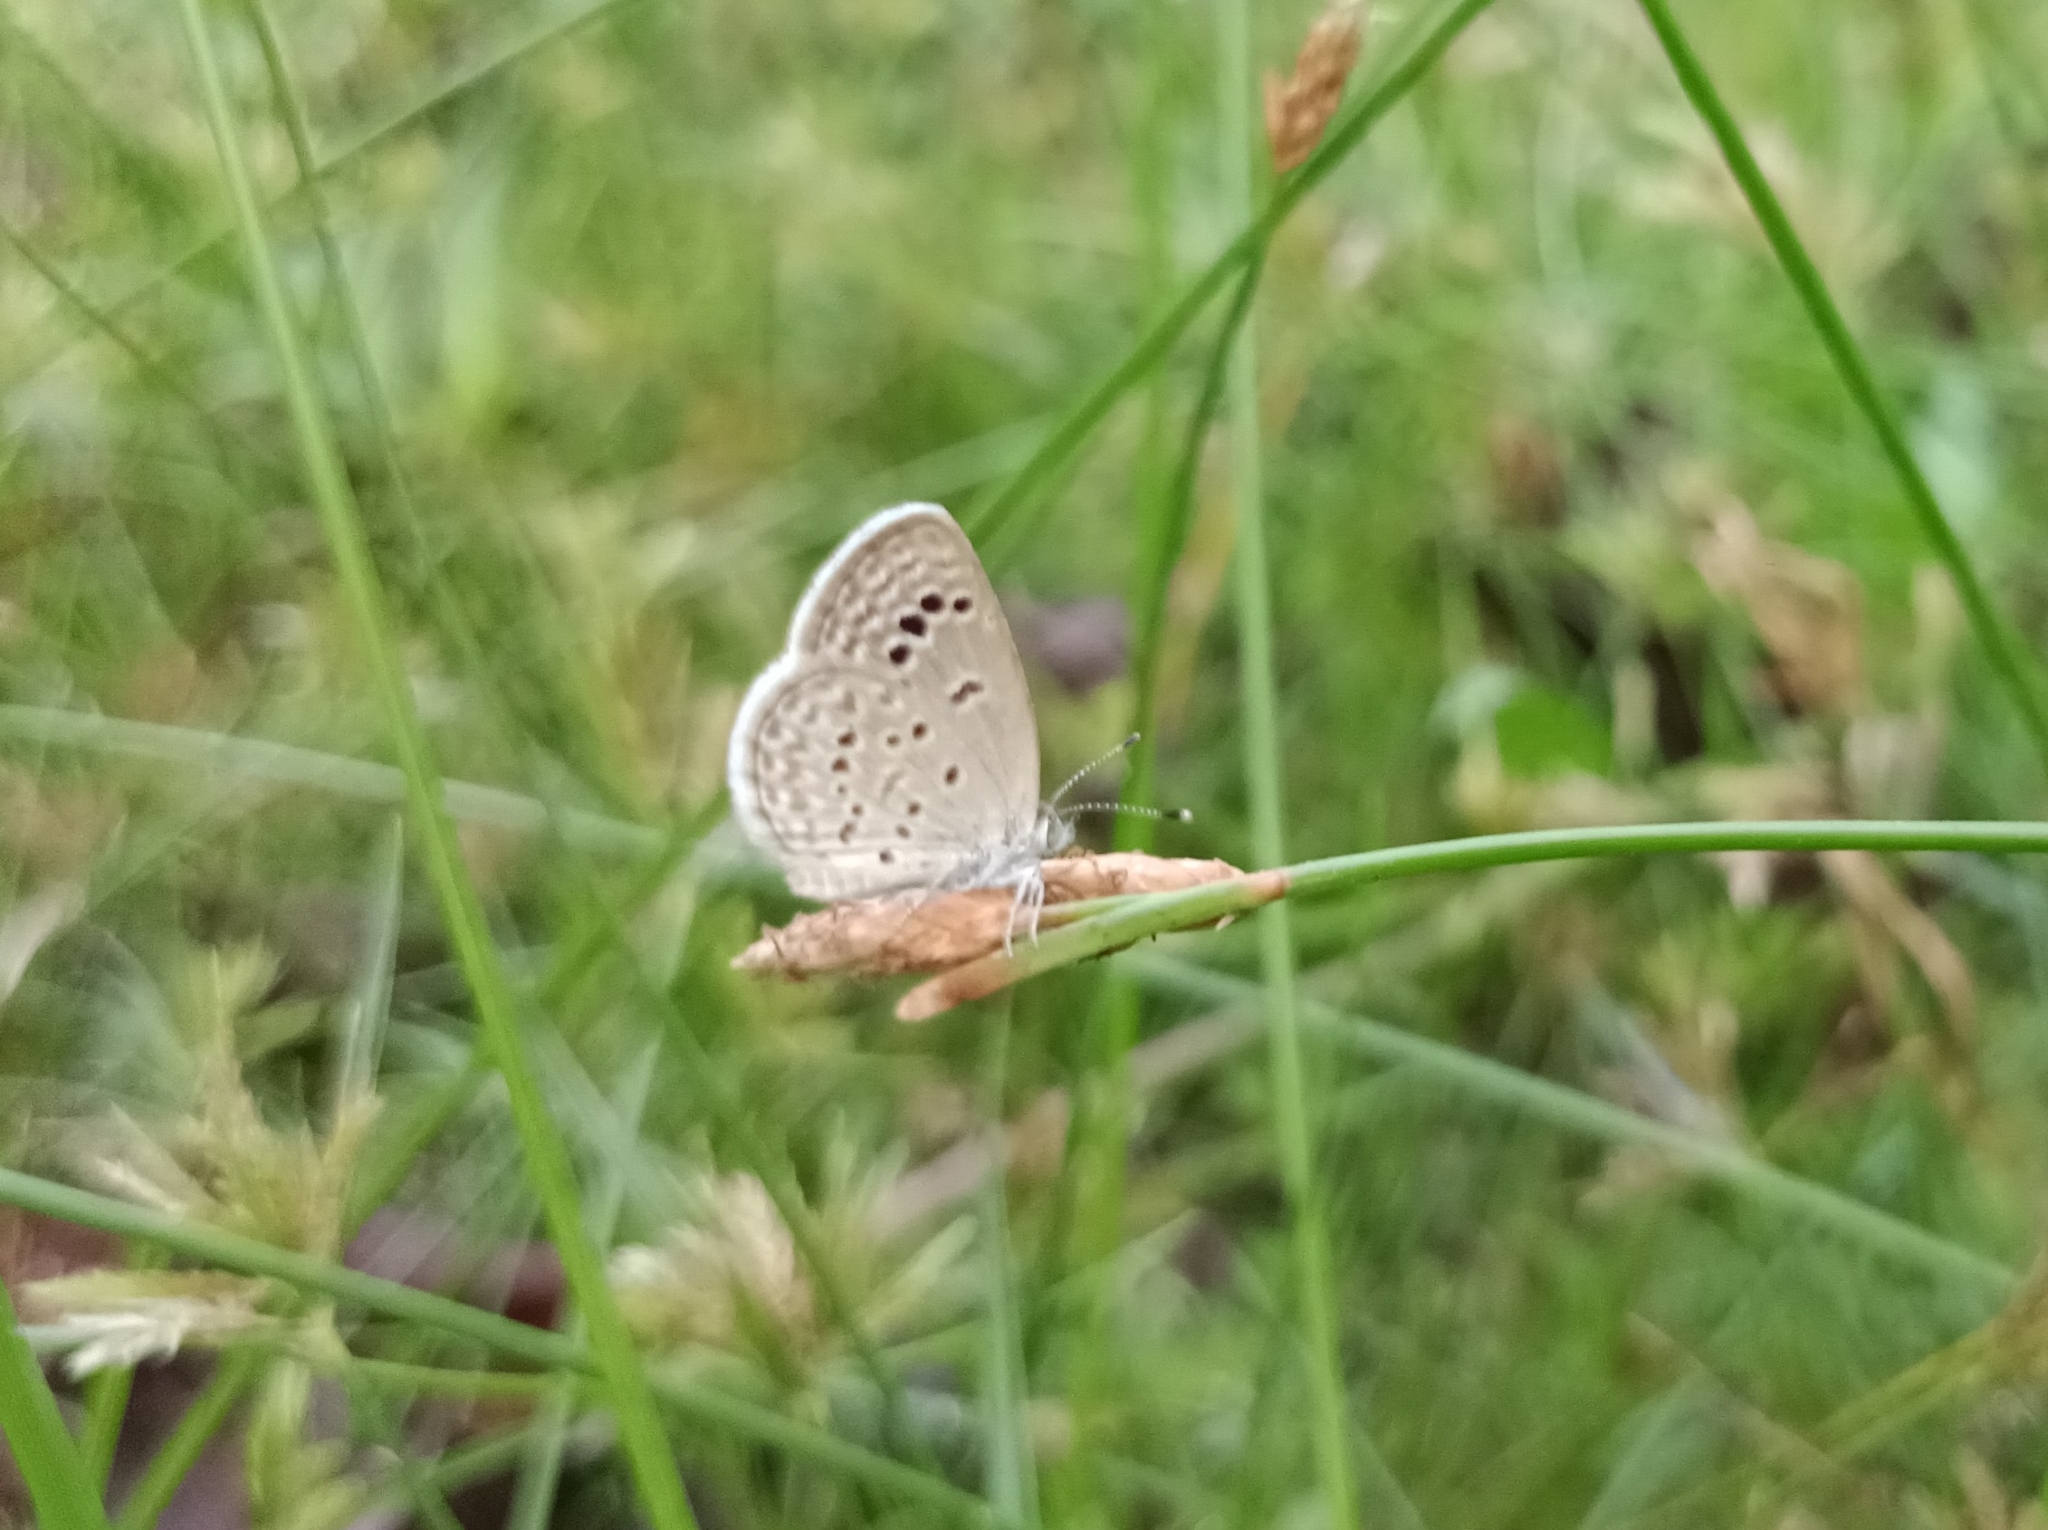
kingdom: Animalia
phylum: Arthropoda
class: Insecta
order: Lepidoptera
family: Lycaenidae
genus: Zizina
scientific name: Zizina otis
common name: Lesser grass blue
